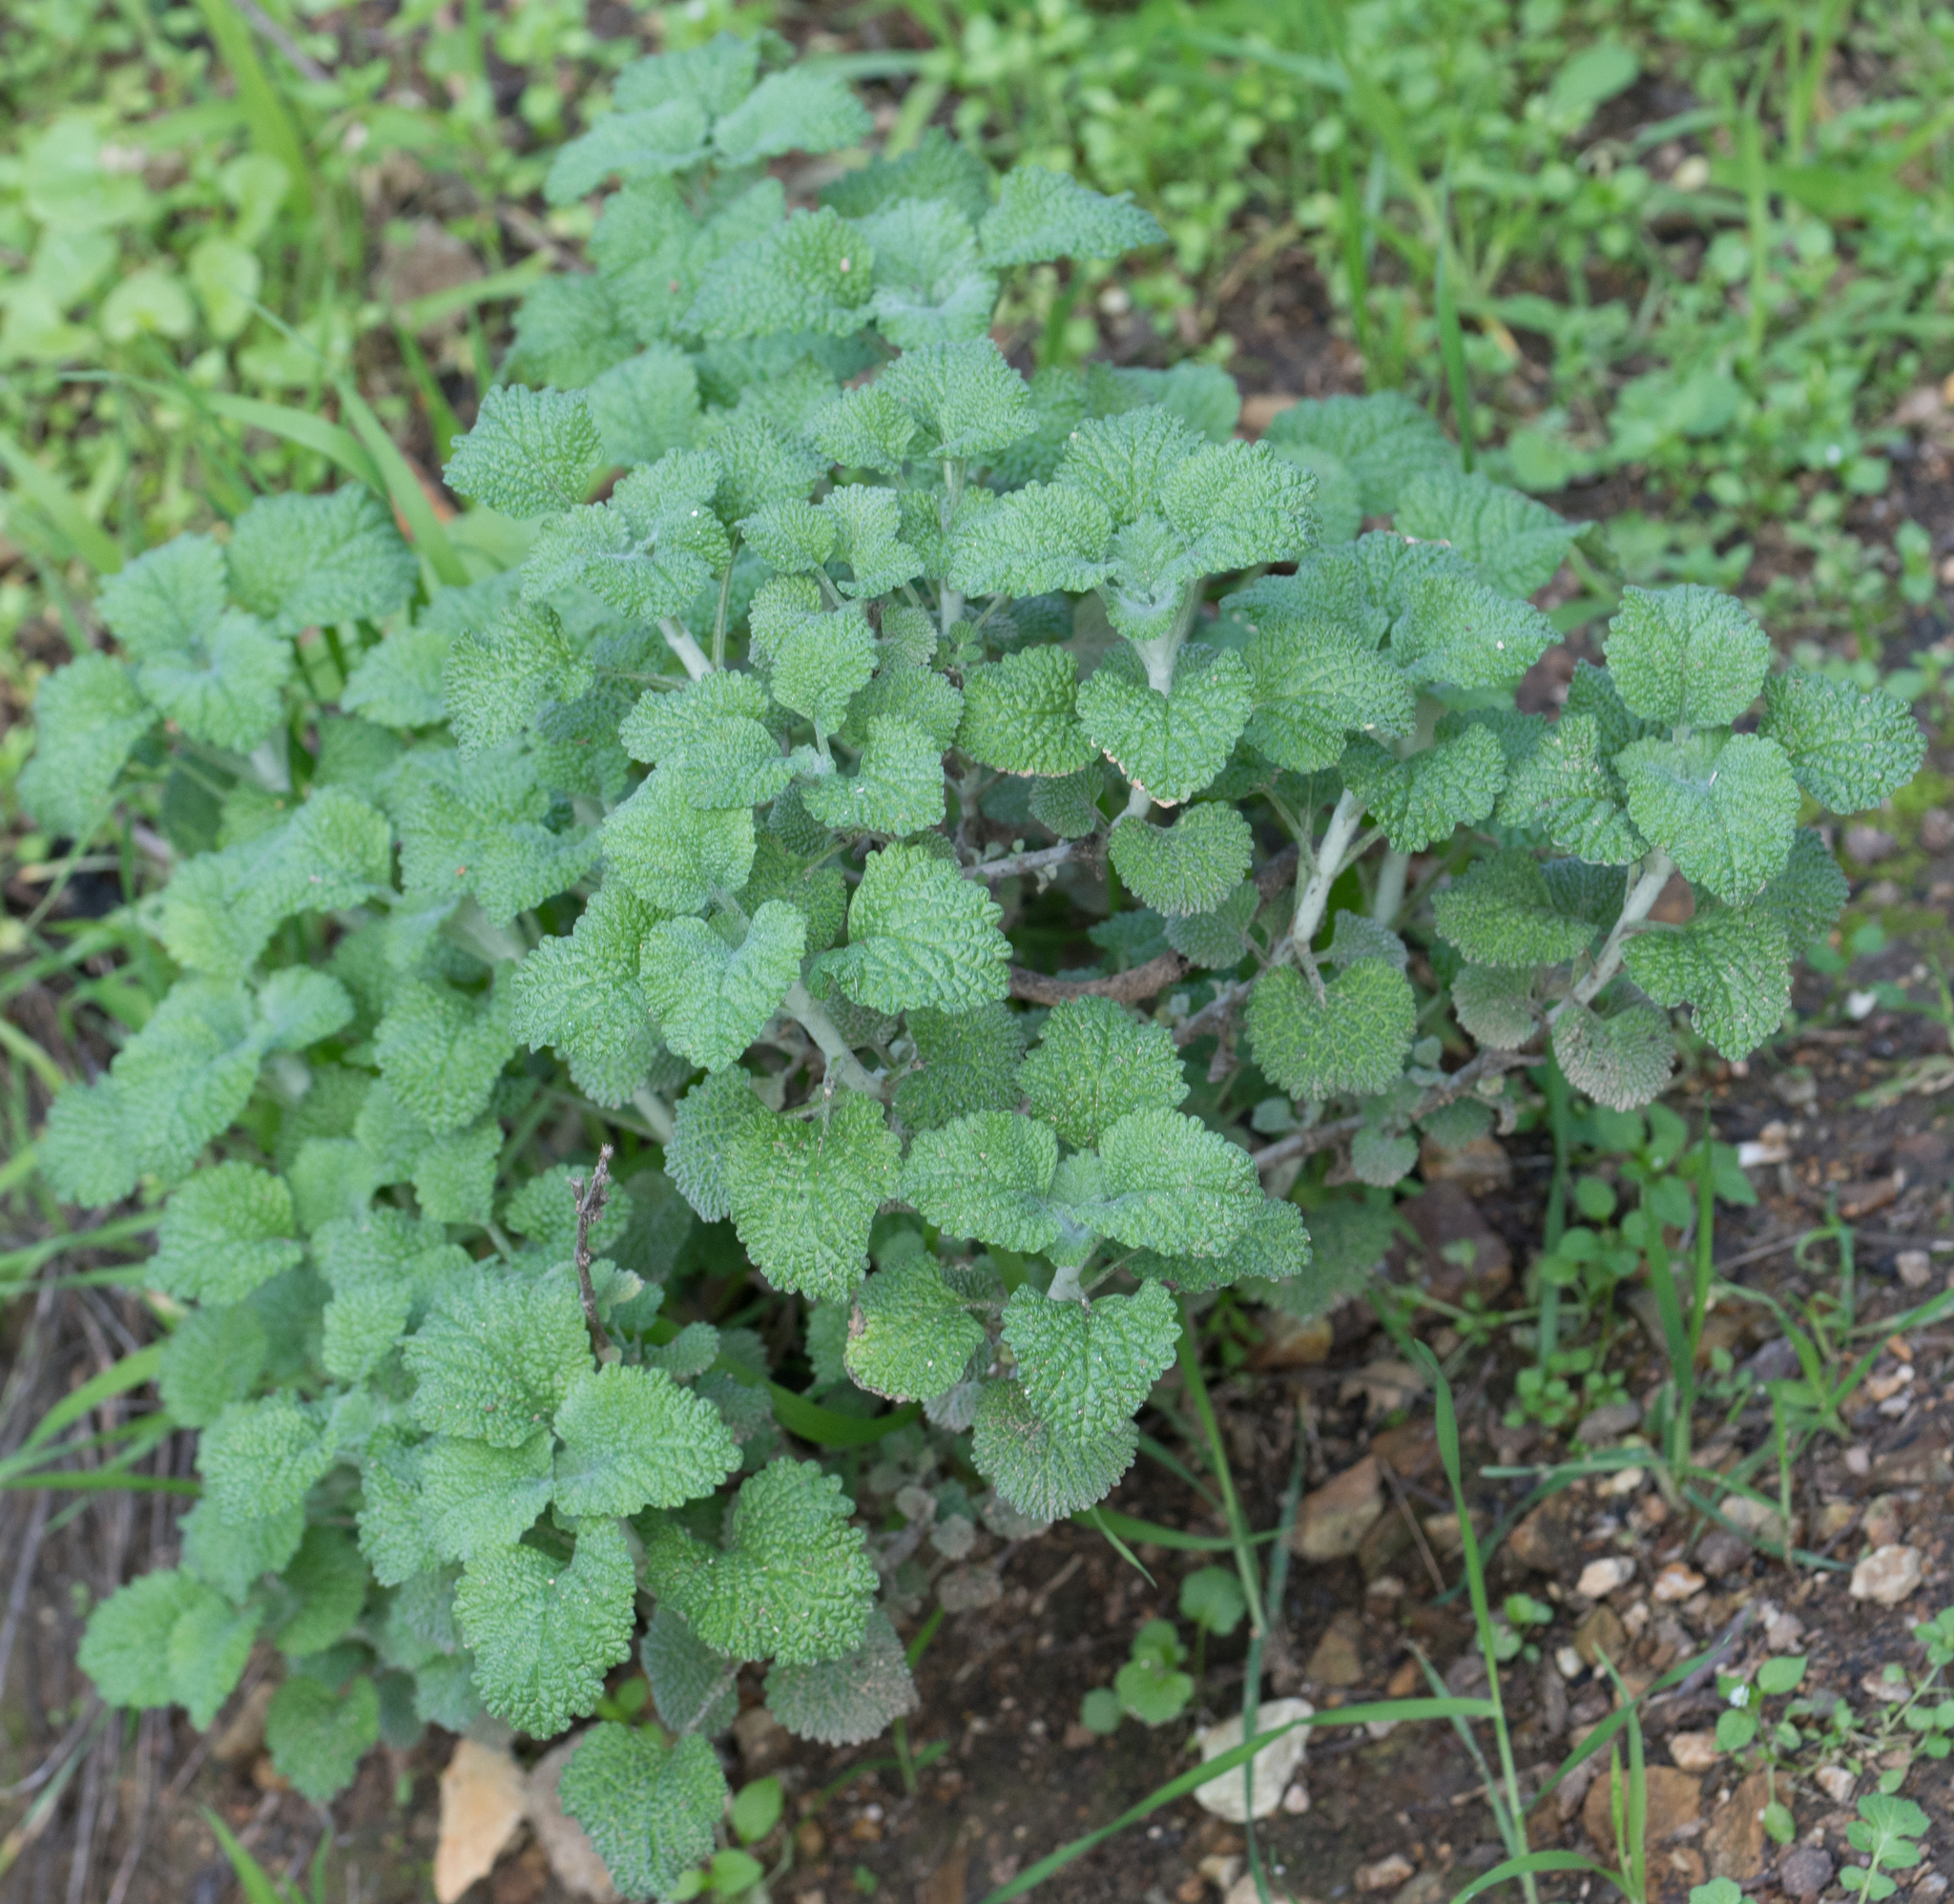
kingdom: Plantae
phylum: Tracheophyta
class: Magnoliopsida
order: Lamiales
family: Lamiaceae
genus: Marrubium
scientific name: Marrubium vulgare
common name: Horehound
